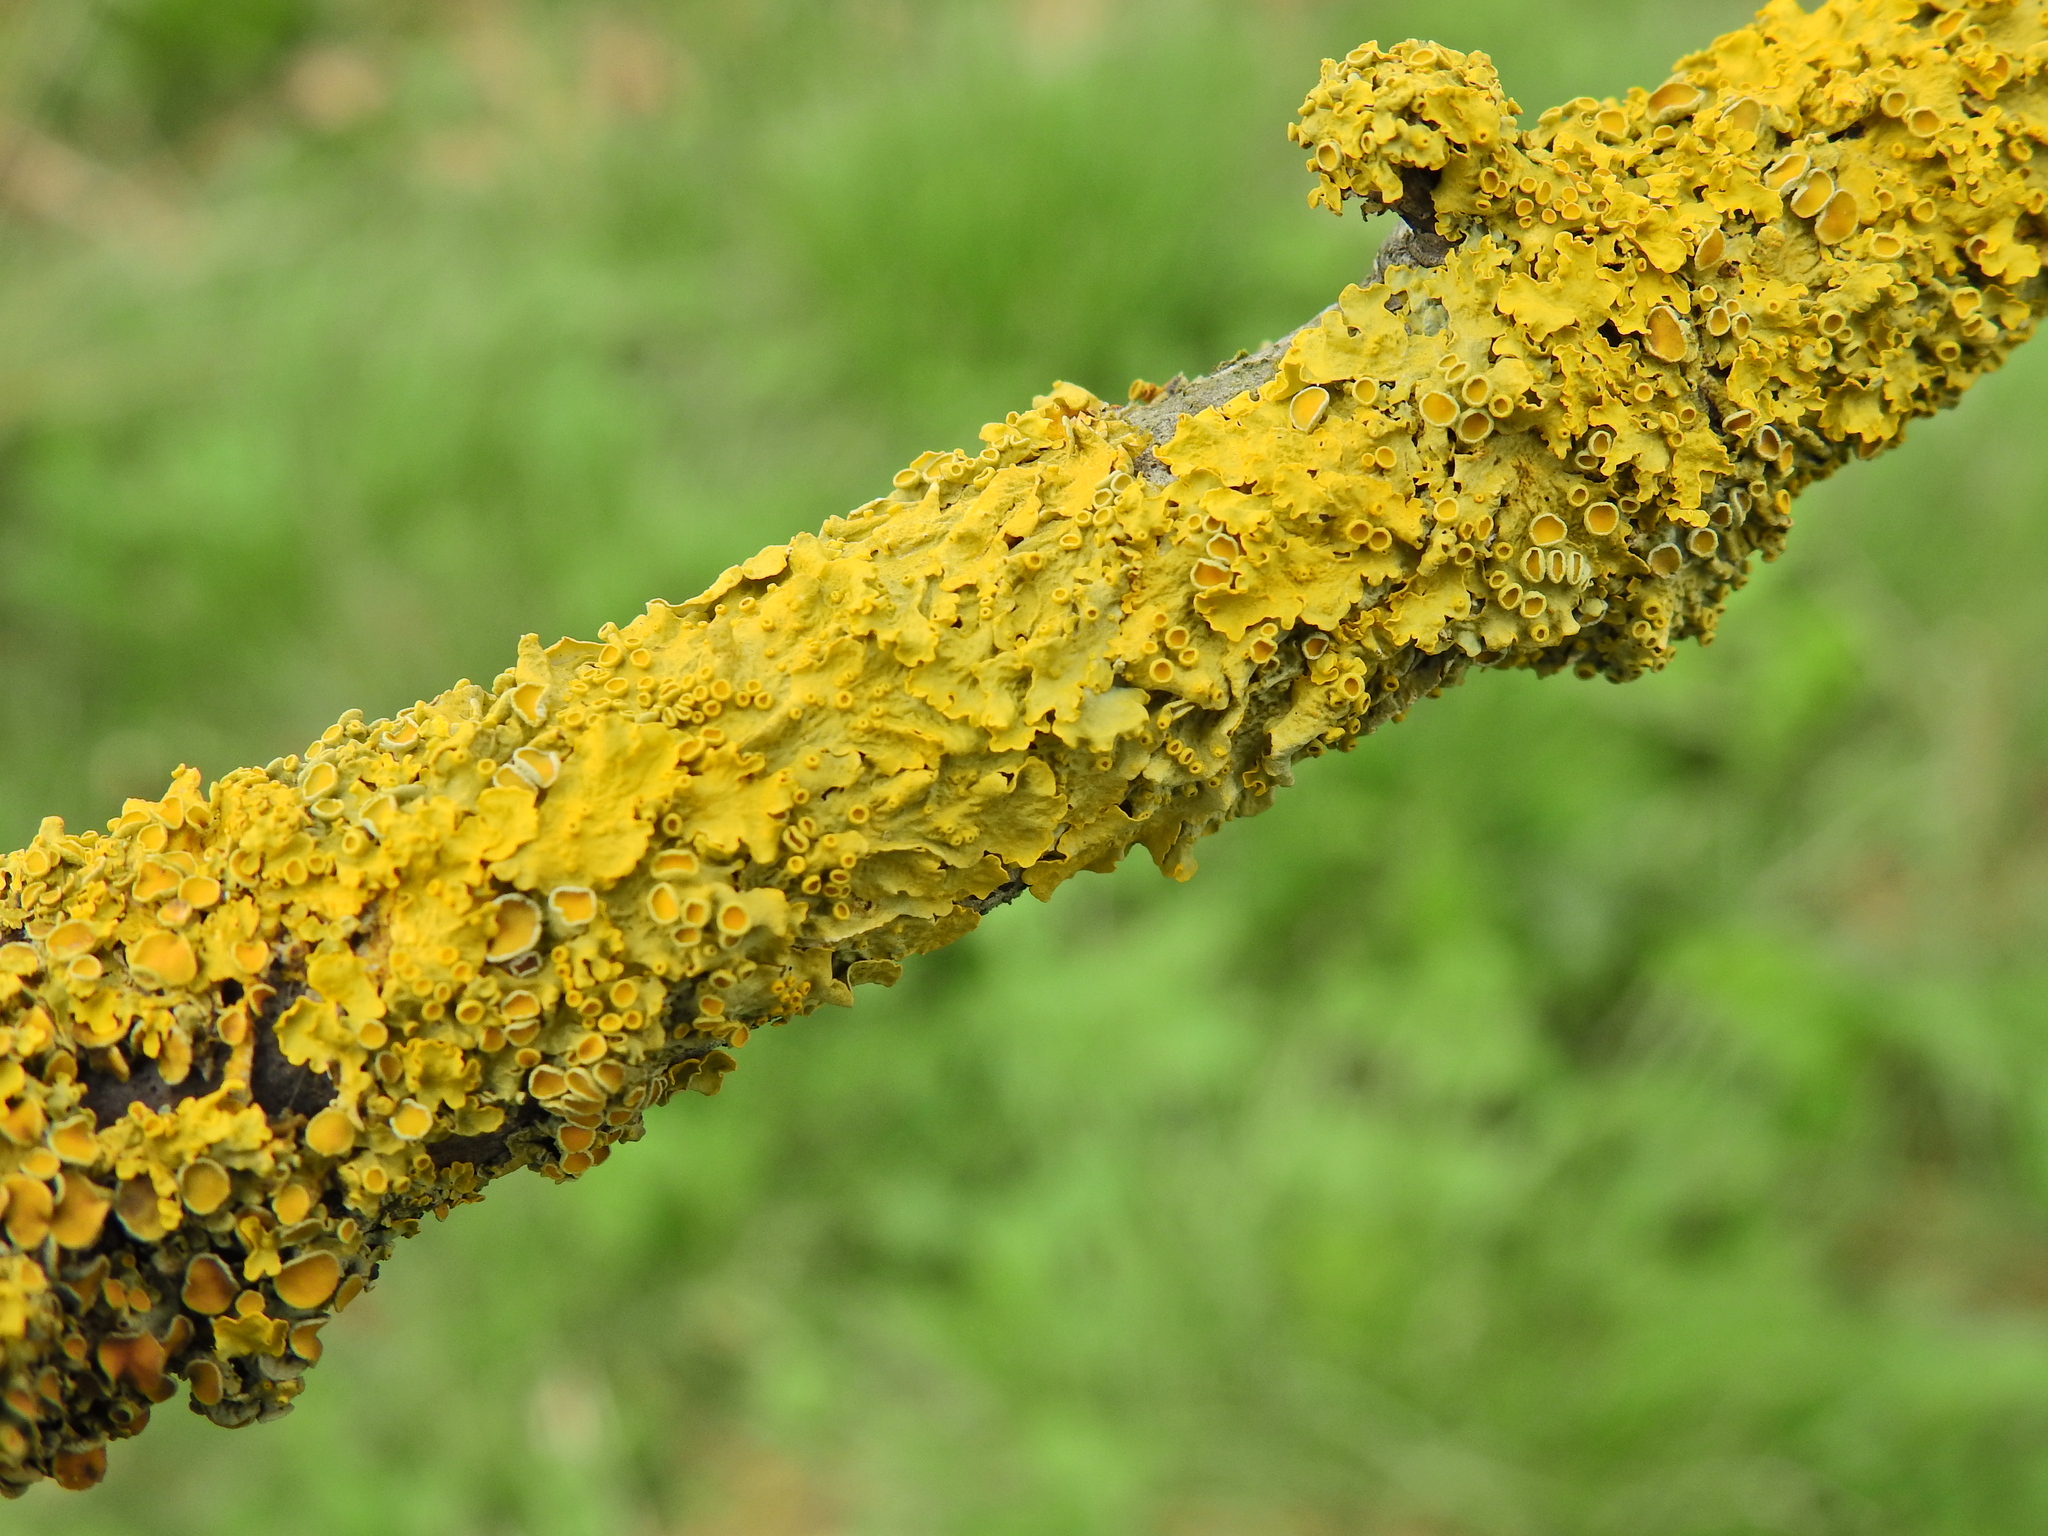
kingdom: Fungi
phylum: Ascomycota
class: Lecanoromycetes
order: Teloschistales
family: Teloschistaceae
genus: Xanthoria
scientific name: Xanthoria parietina
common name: Common orange lichen
